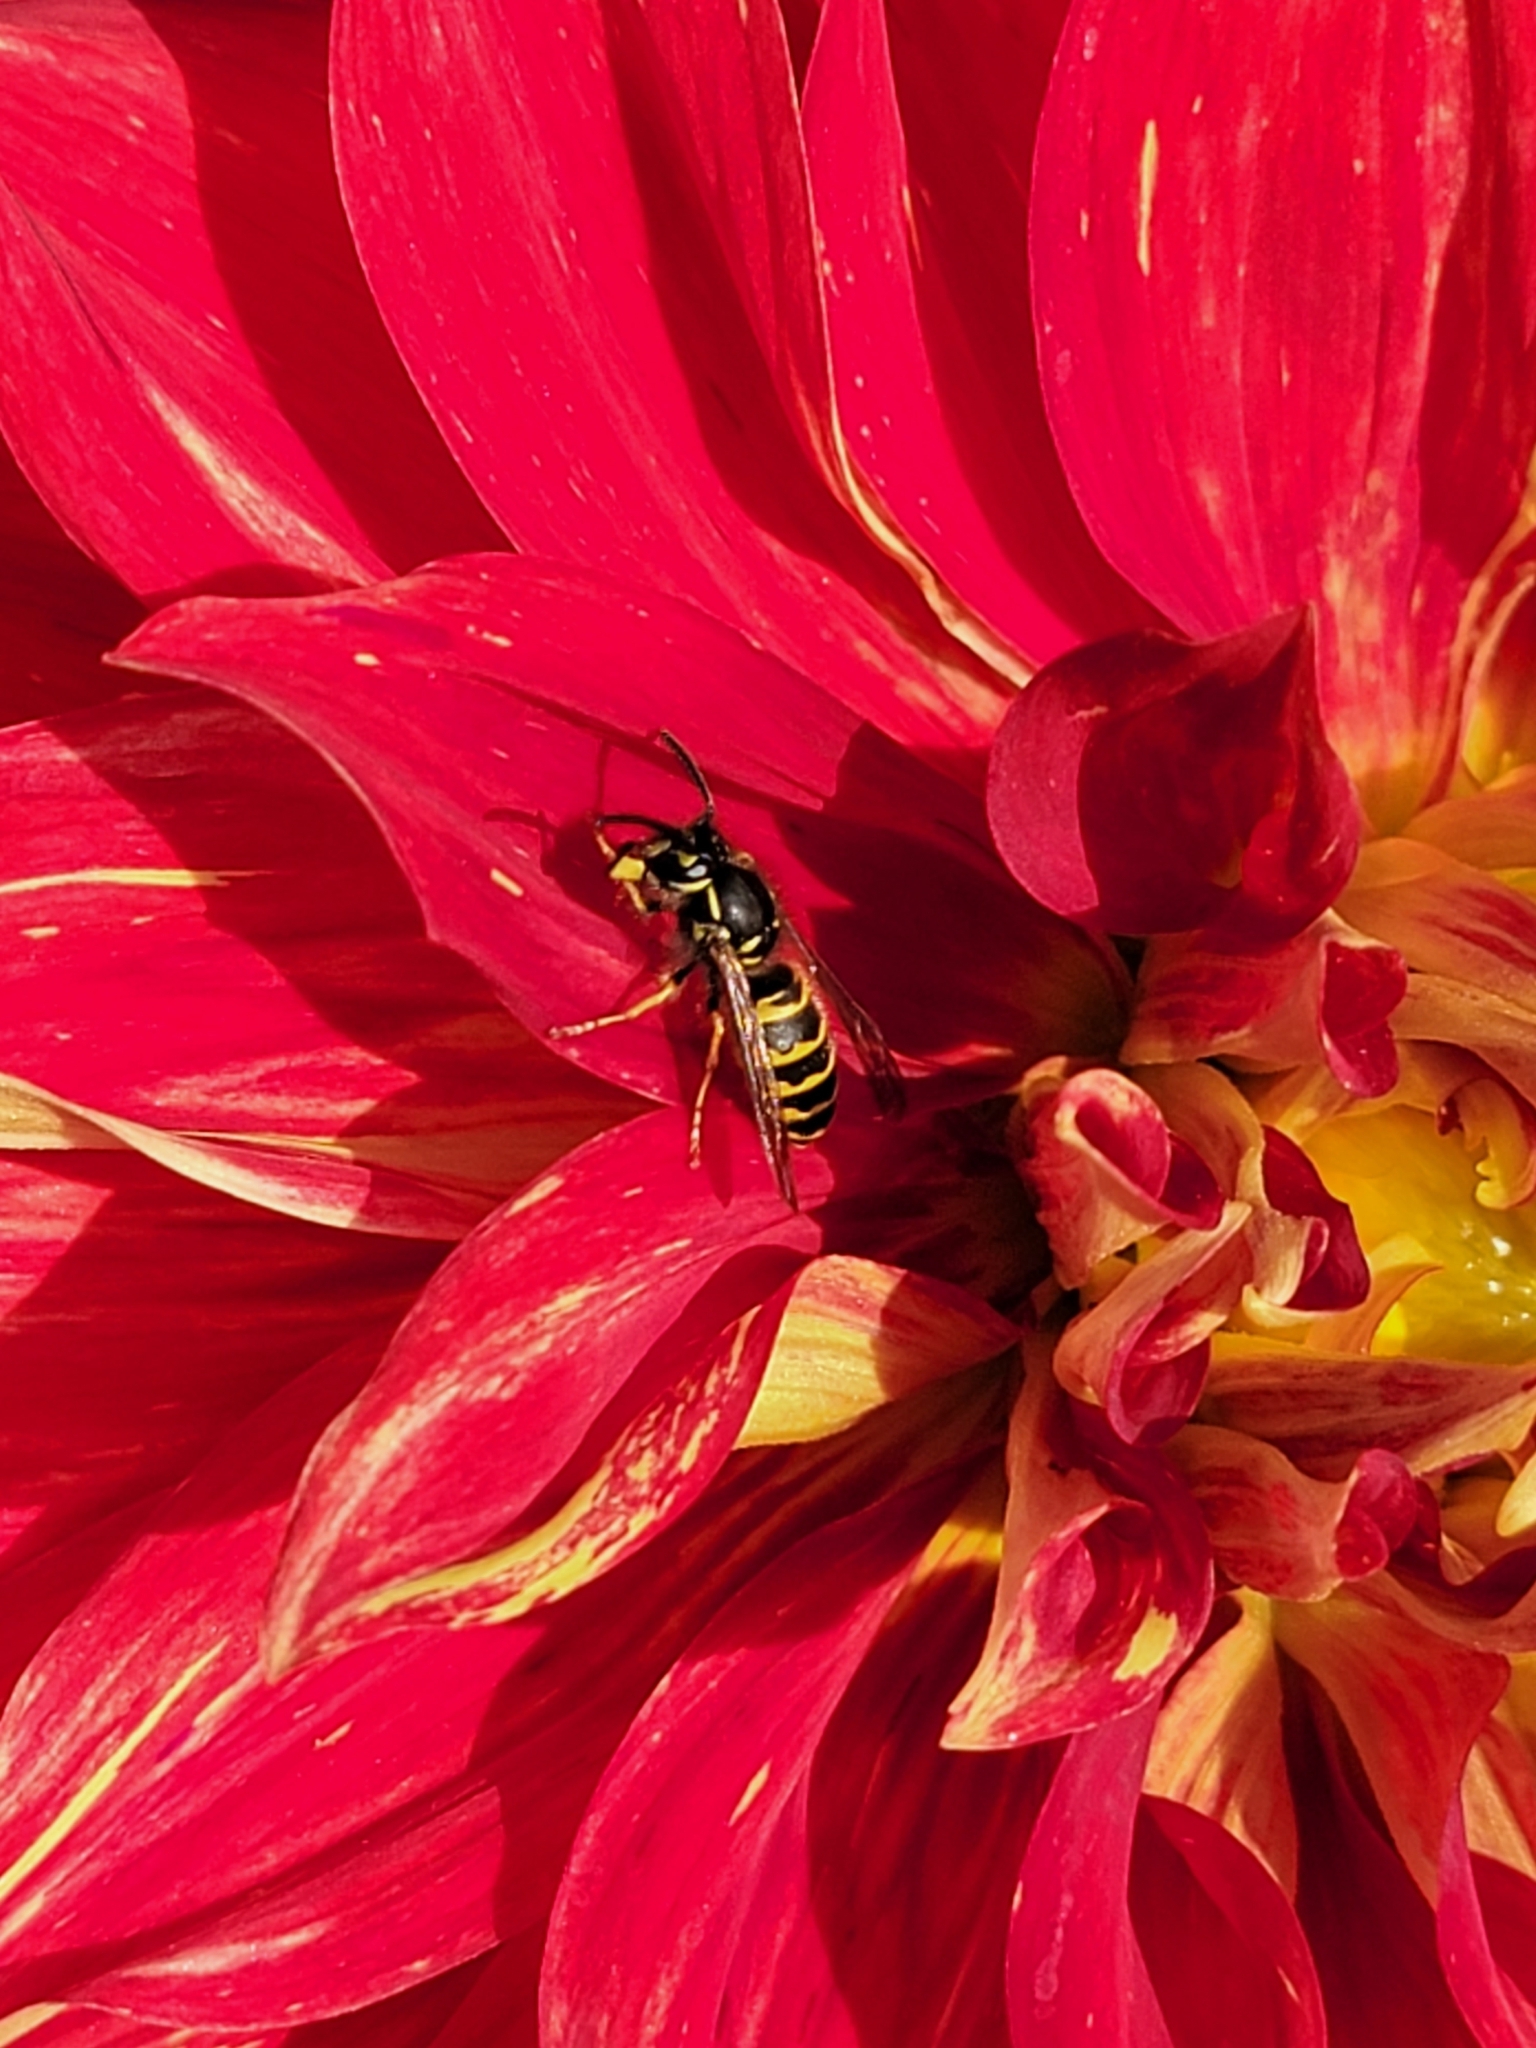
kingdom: Animalia
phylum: Arthropoda
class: Insecta
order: Hymenoptera
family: Vespidae
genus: Vespula
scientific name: Vespula alascensis
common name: Alaska yellowjacket
